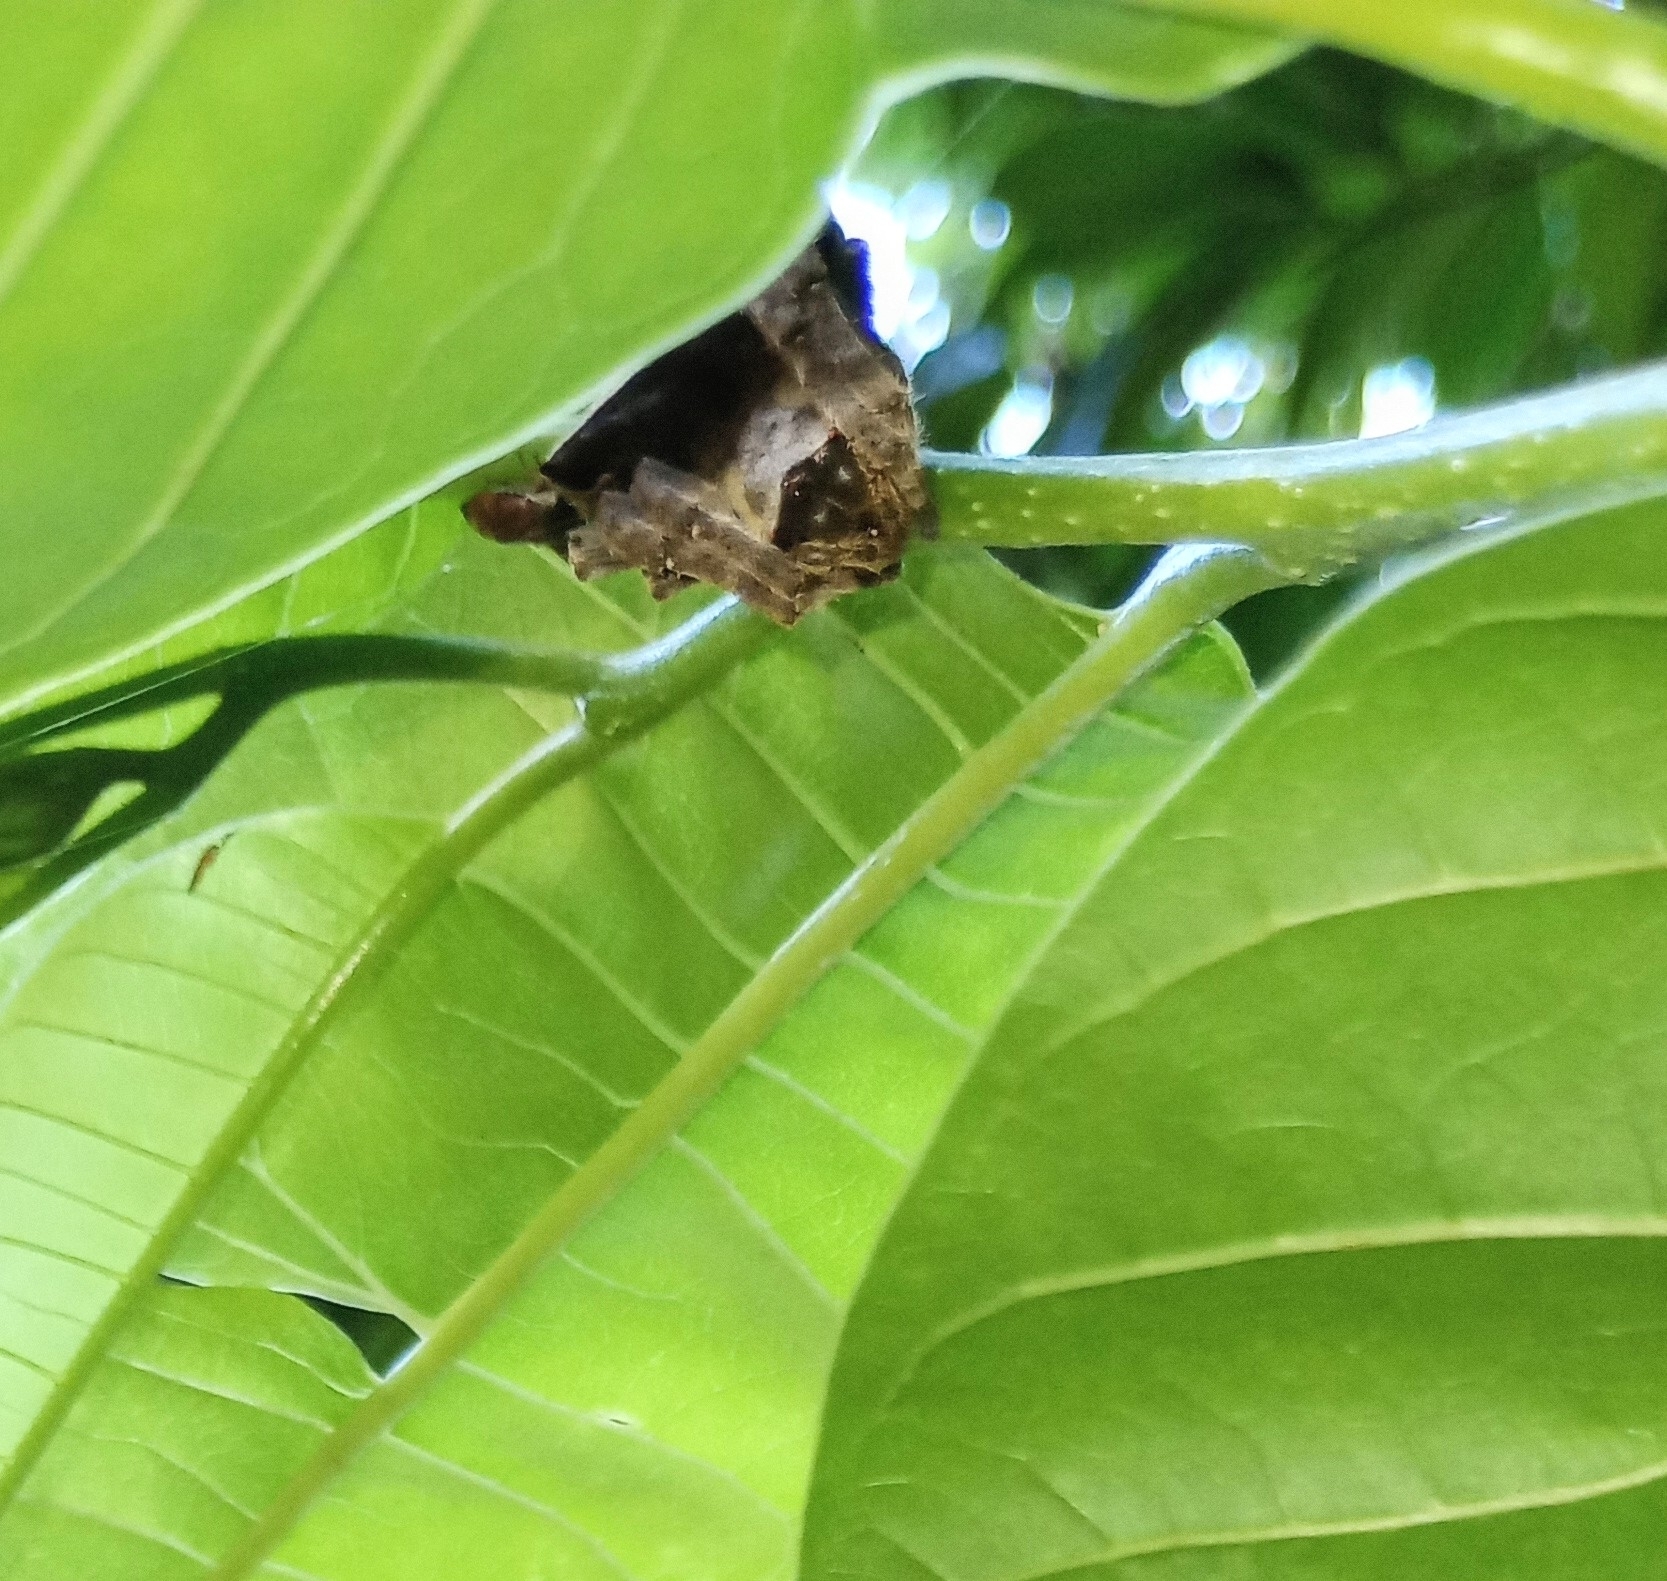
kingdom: Animalia
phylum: Arthropoda
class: Arachnida
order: Araneae
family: Araneidae
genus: Parawixia
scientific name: Parawixia dehaani
